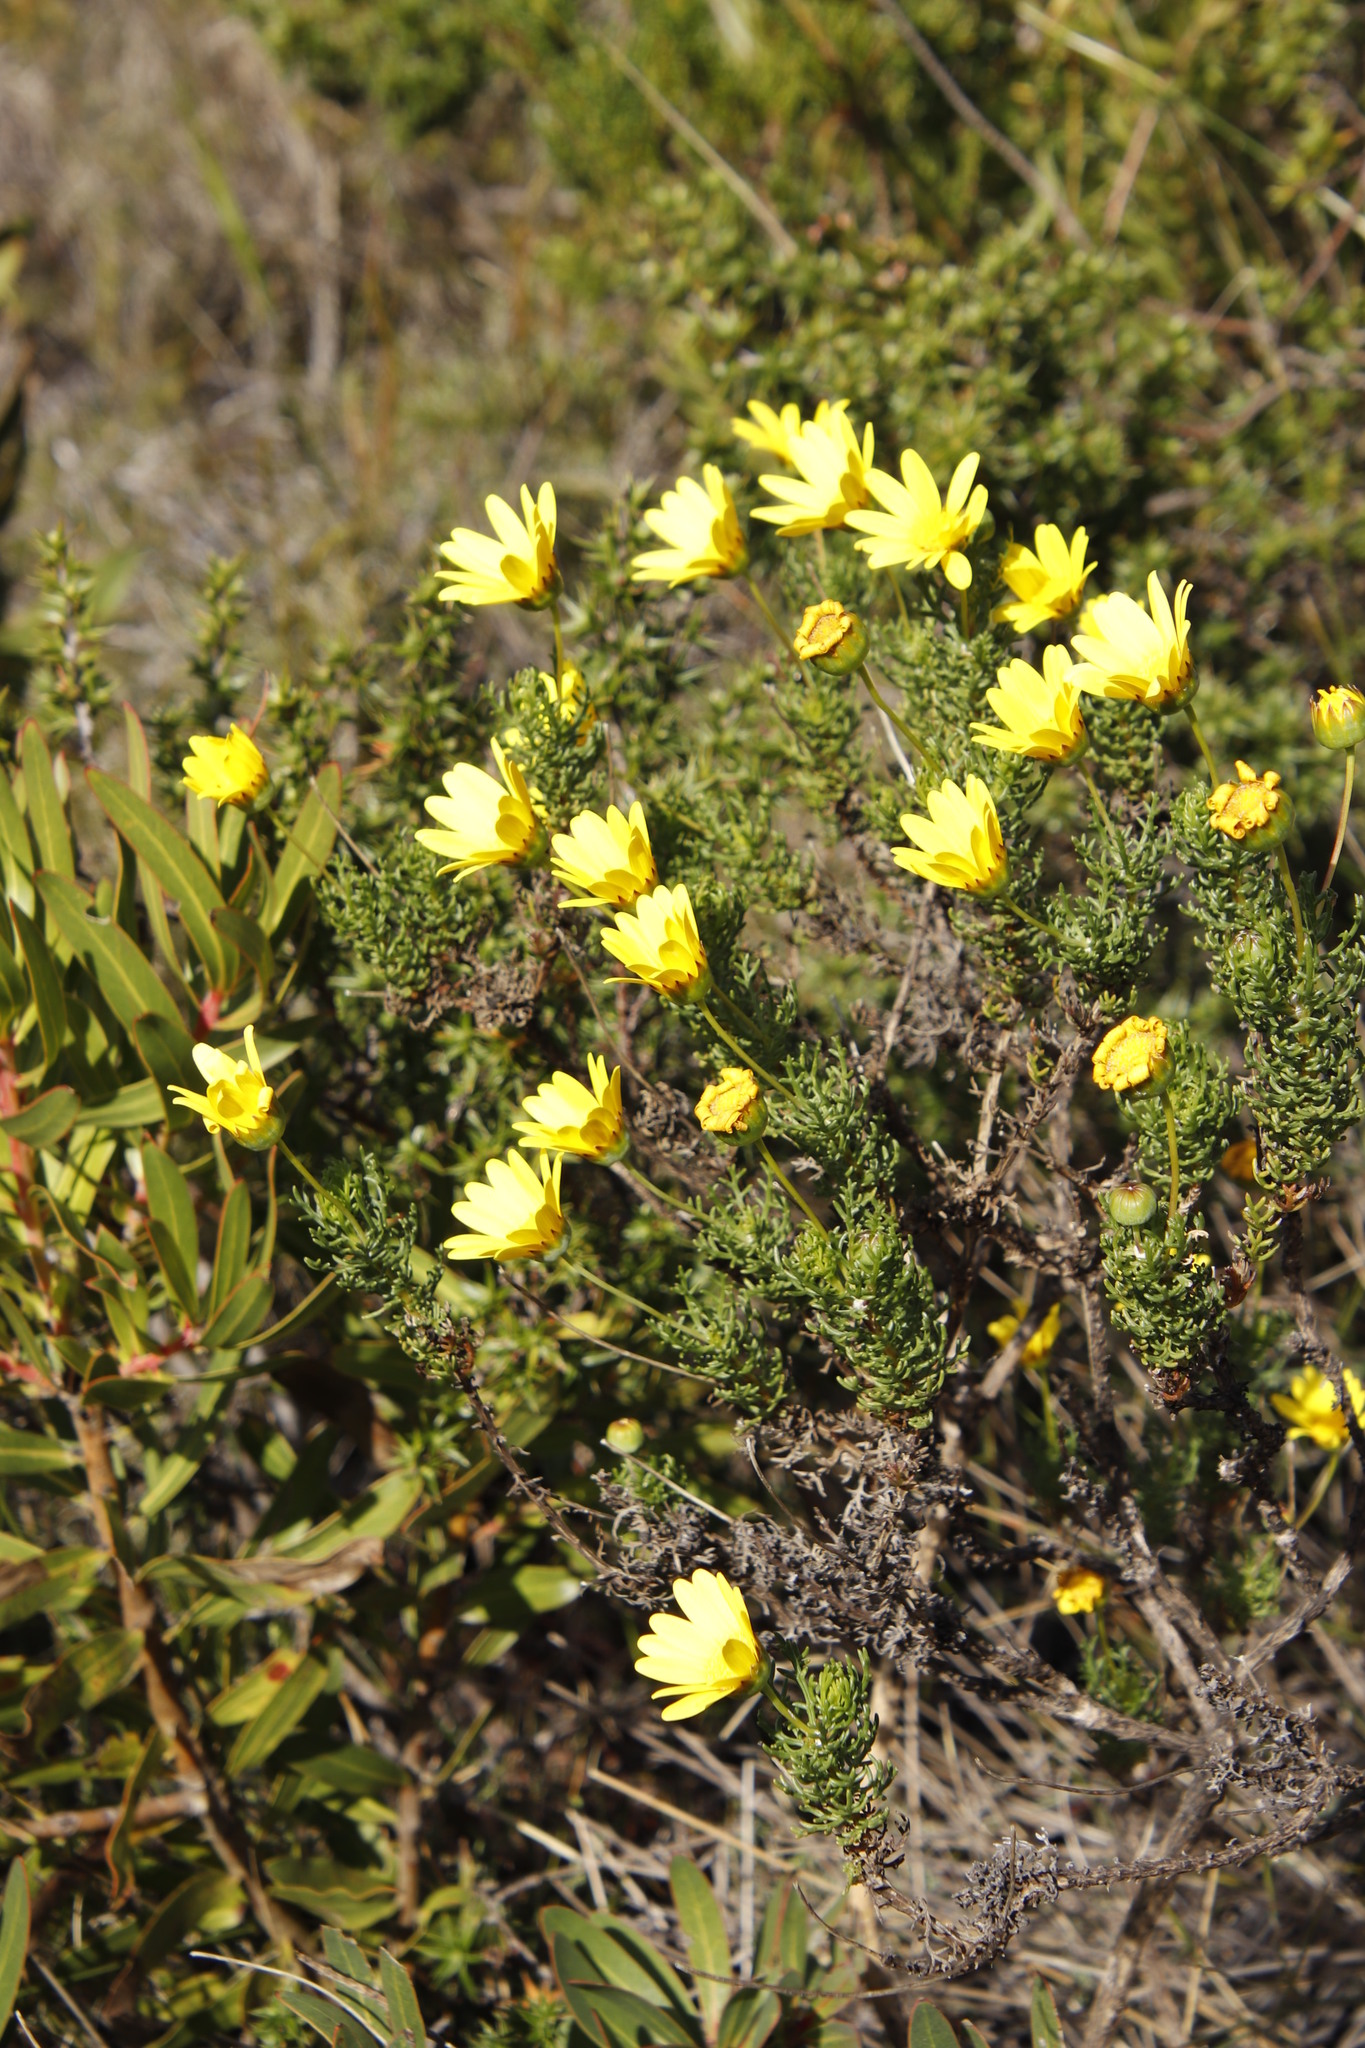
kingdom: Plantae
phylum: Tracheophyta
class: Magnoliopsida
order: Asterales
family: Asteraceae
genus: Euryops
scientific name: Euryops abrotanifolius
